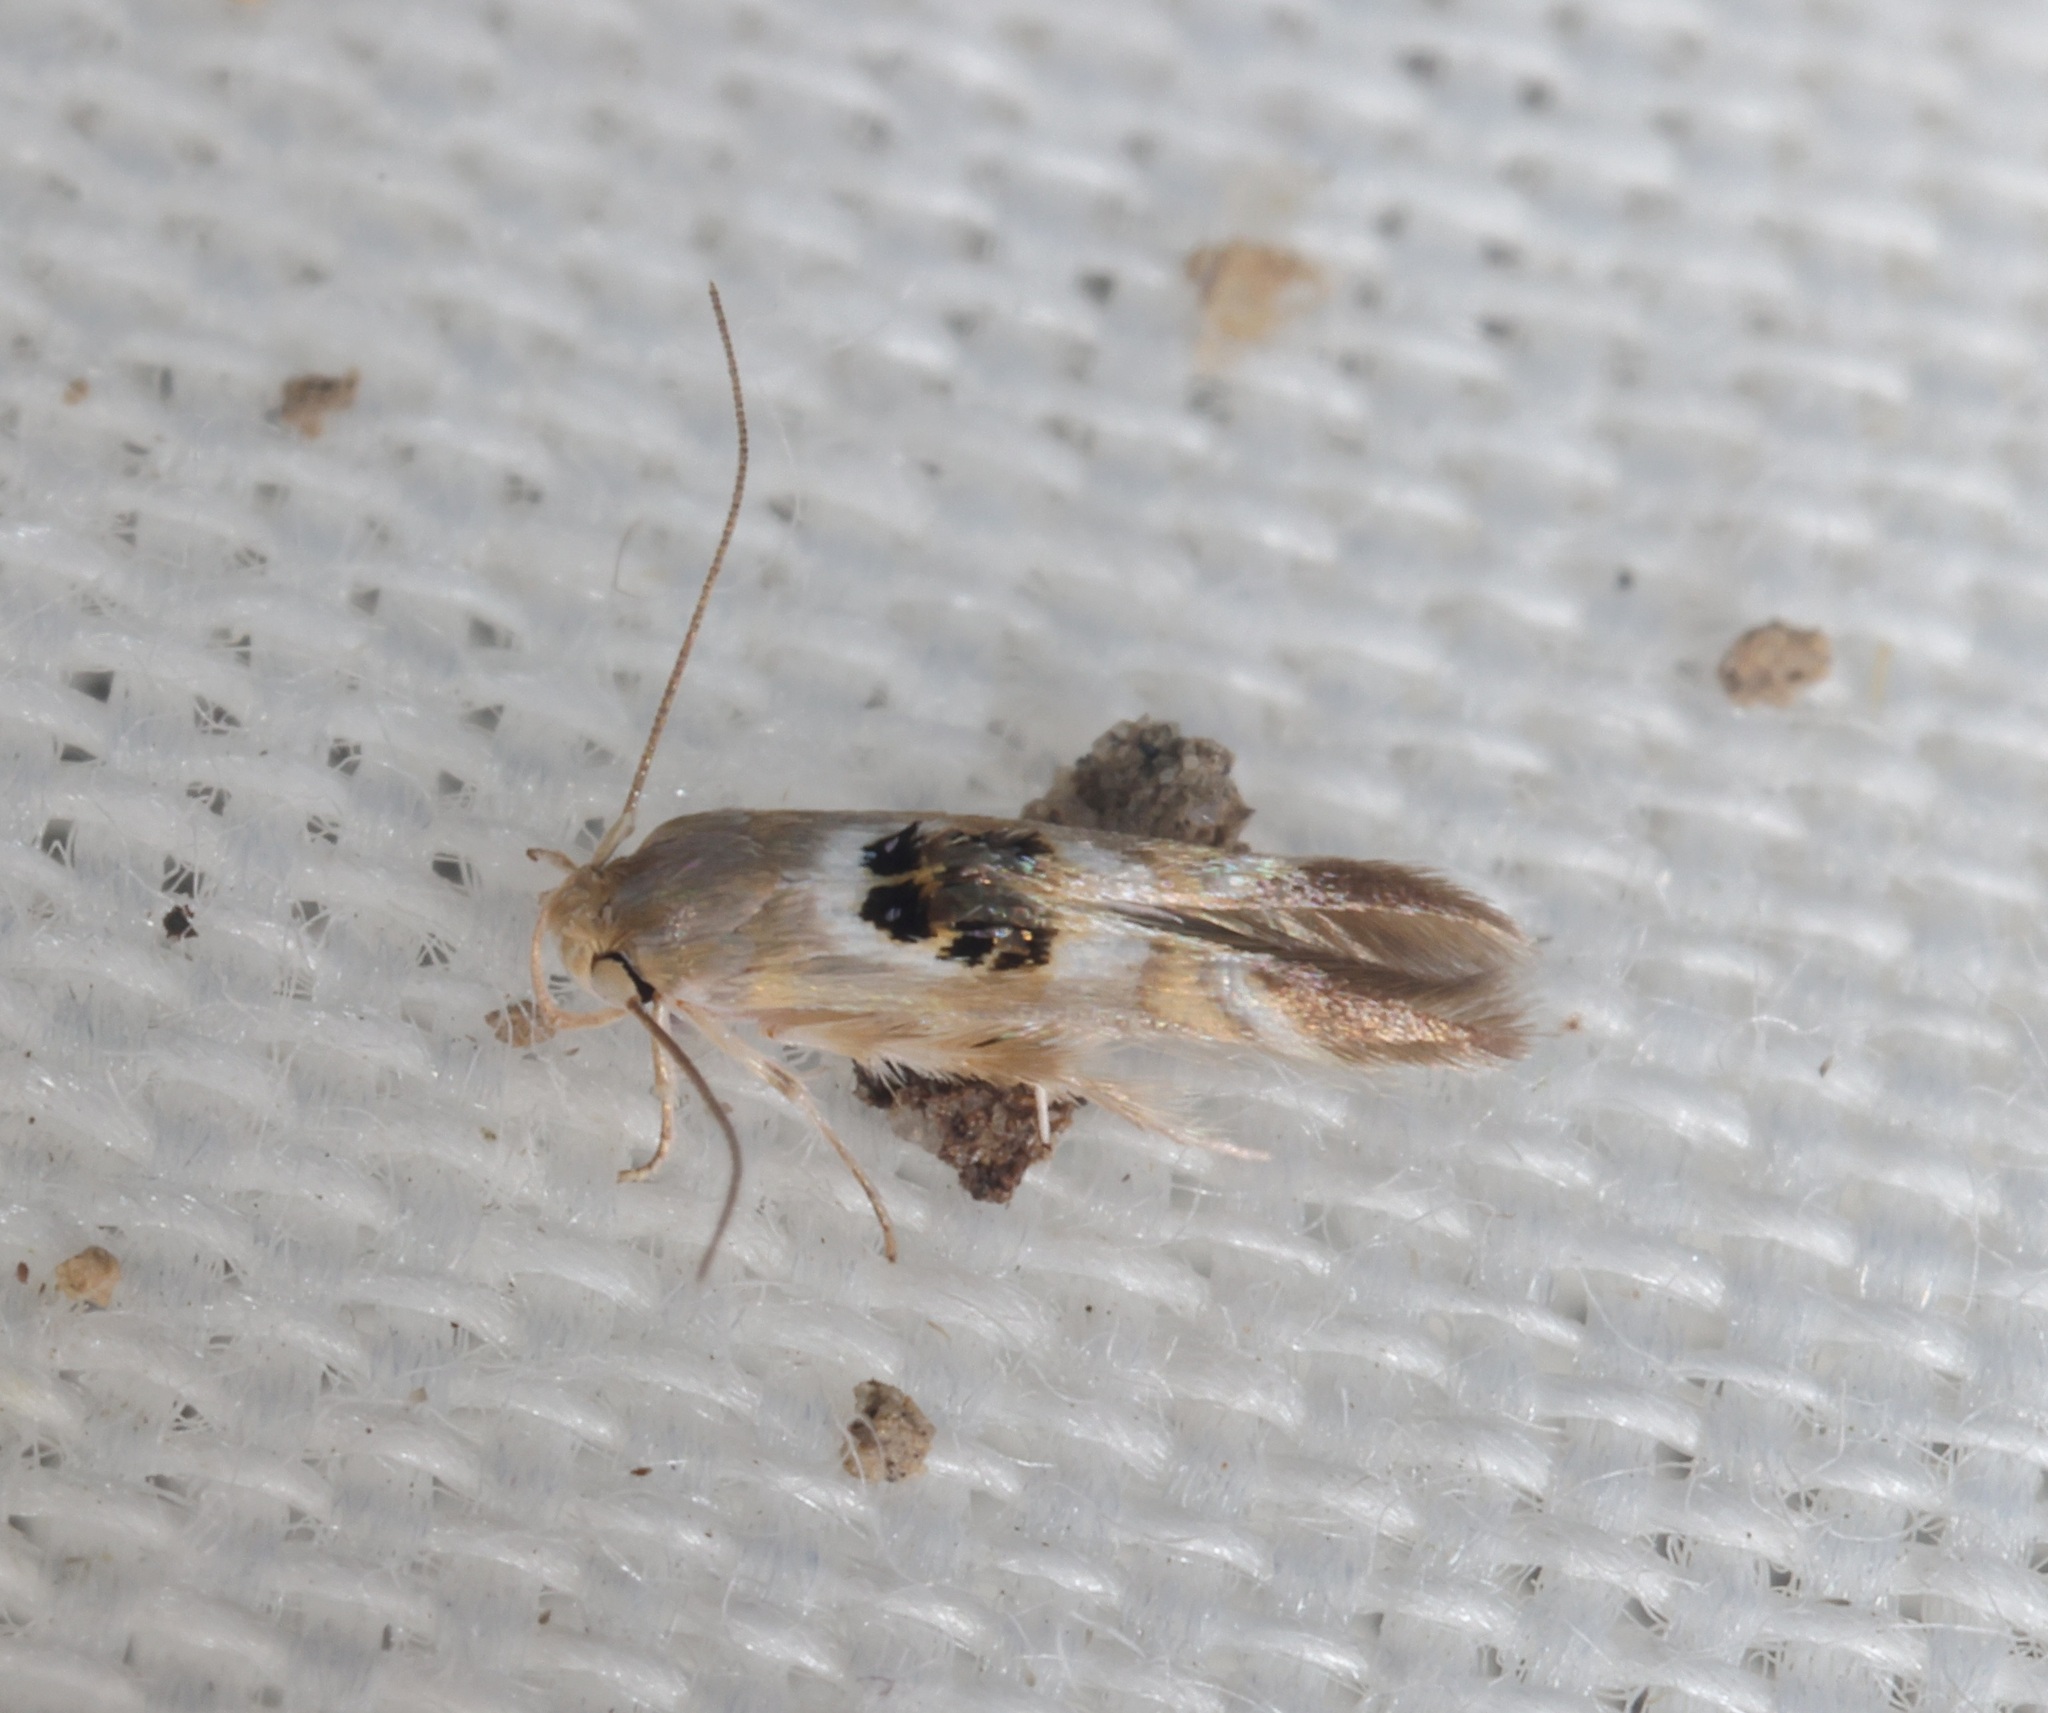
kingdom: Animalia
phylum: Arthropoda
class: Insecta
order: Lepidoptera
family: Stathmopodidae
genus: Hieromantis
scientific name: Hieromantis arcuata
